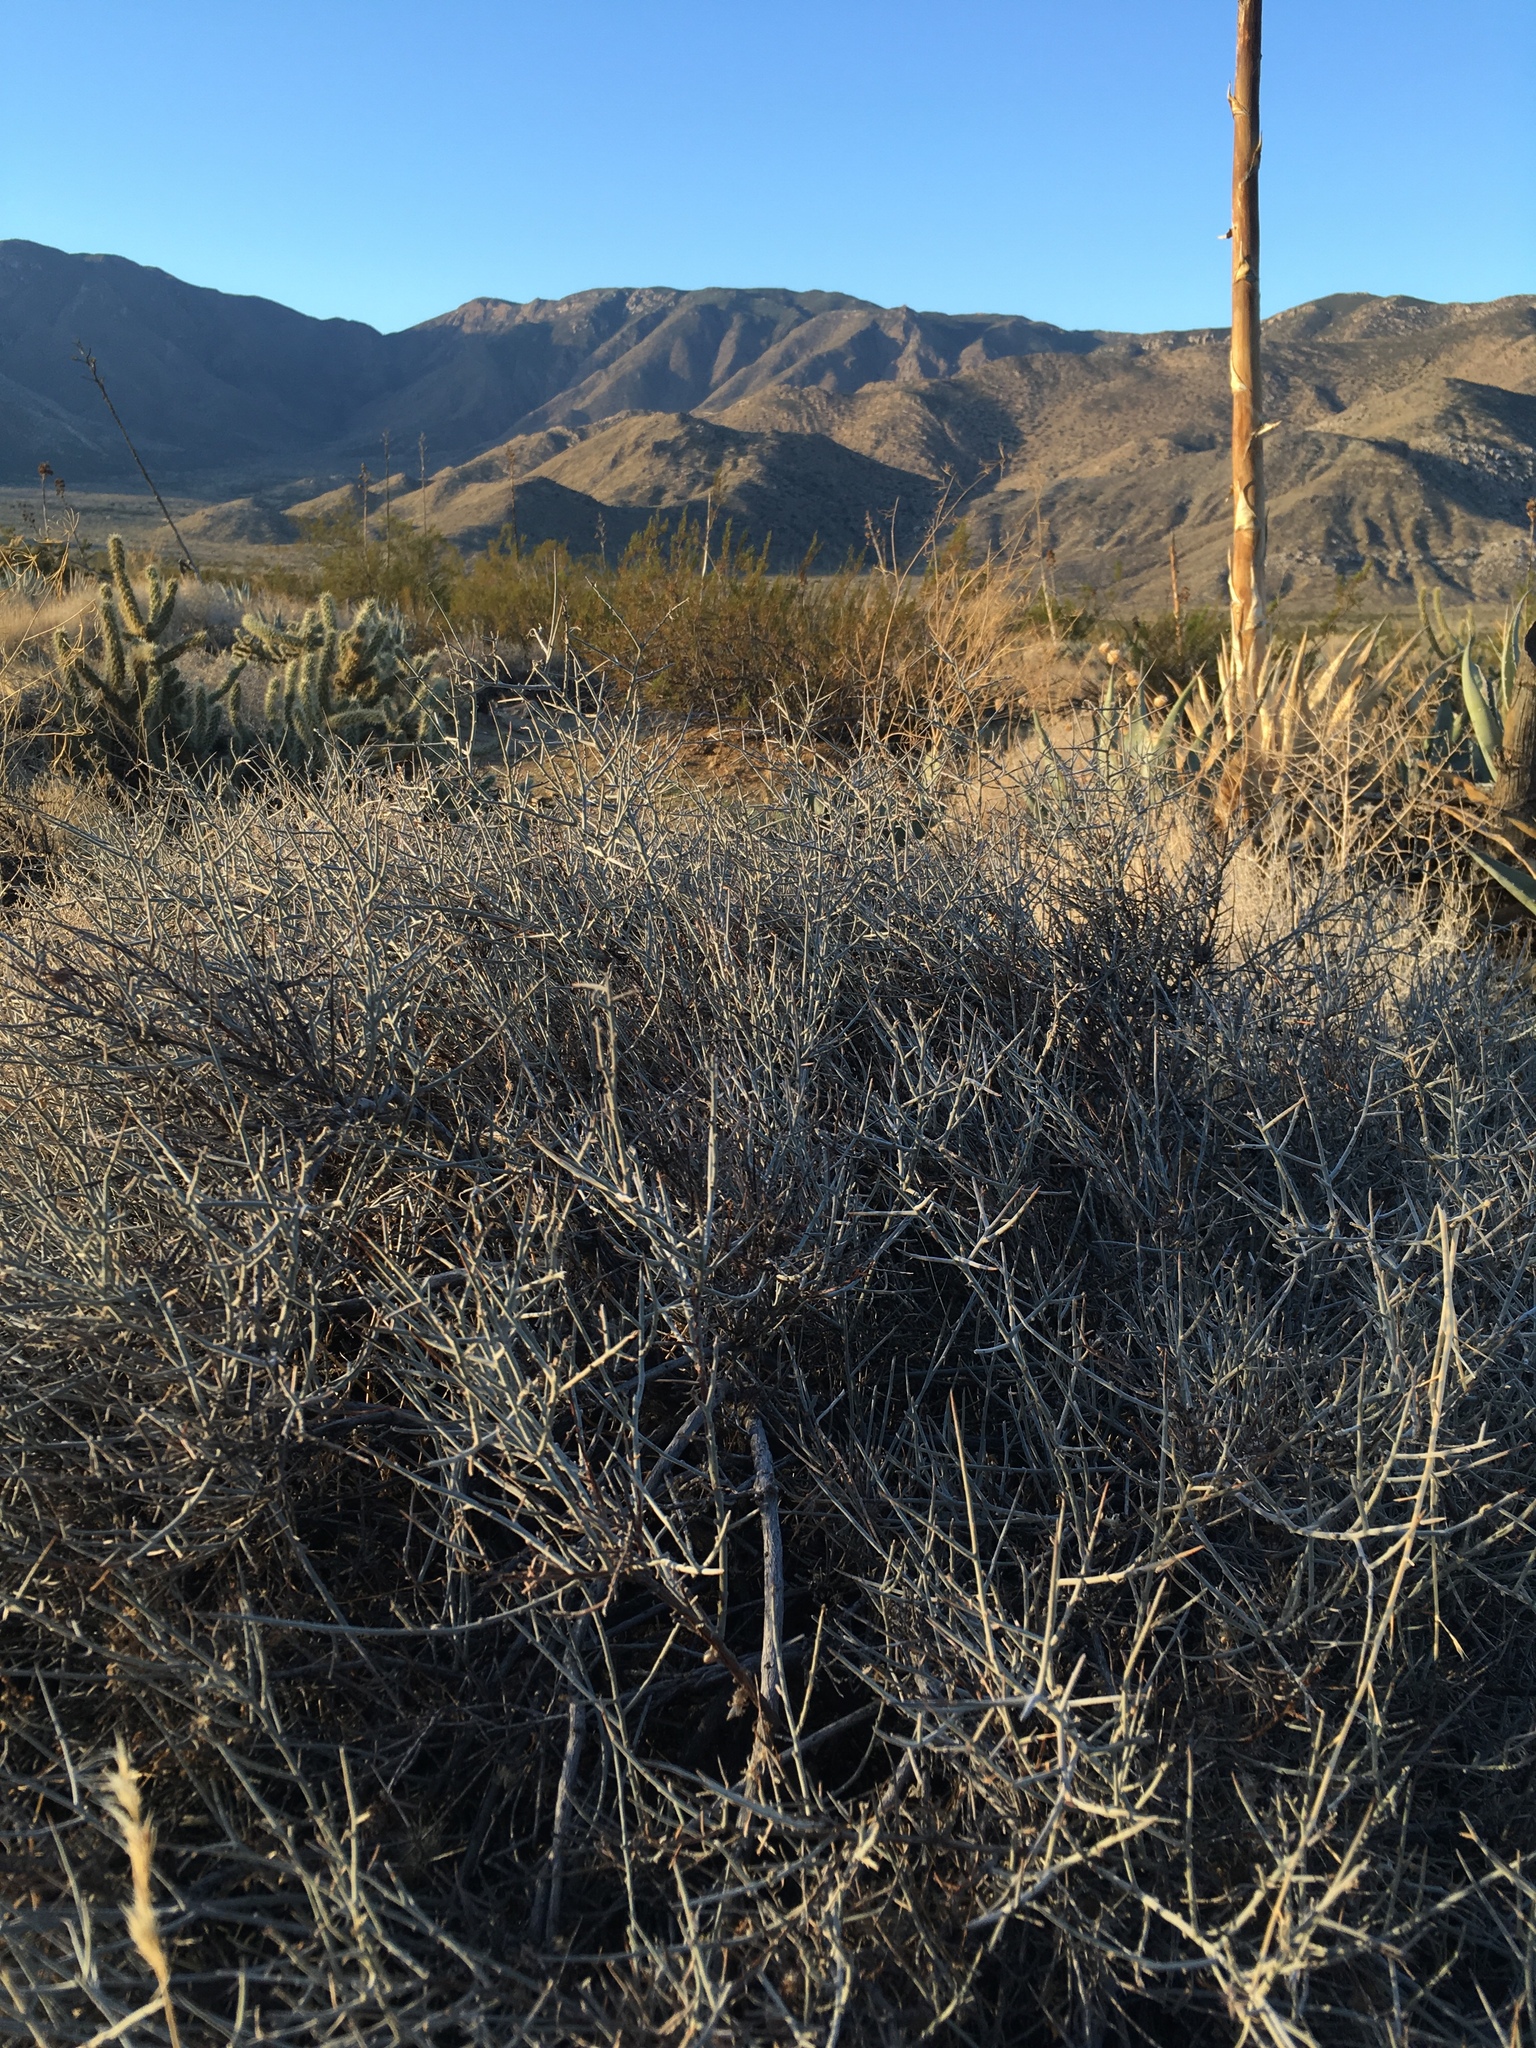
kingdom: Plantae
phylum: Tracheophyta
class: Magnoliopsida
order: Zygophyllales
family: Krameriaceae
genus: Krameria
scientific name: Krameria bicolor
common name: White ratany
